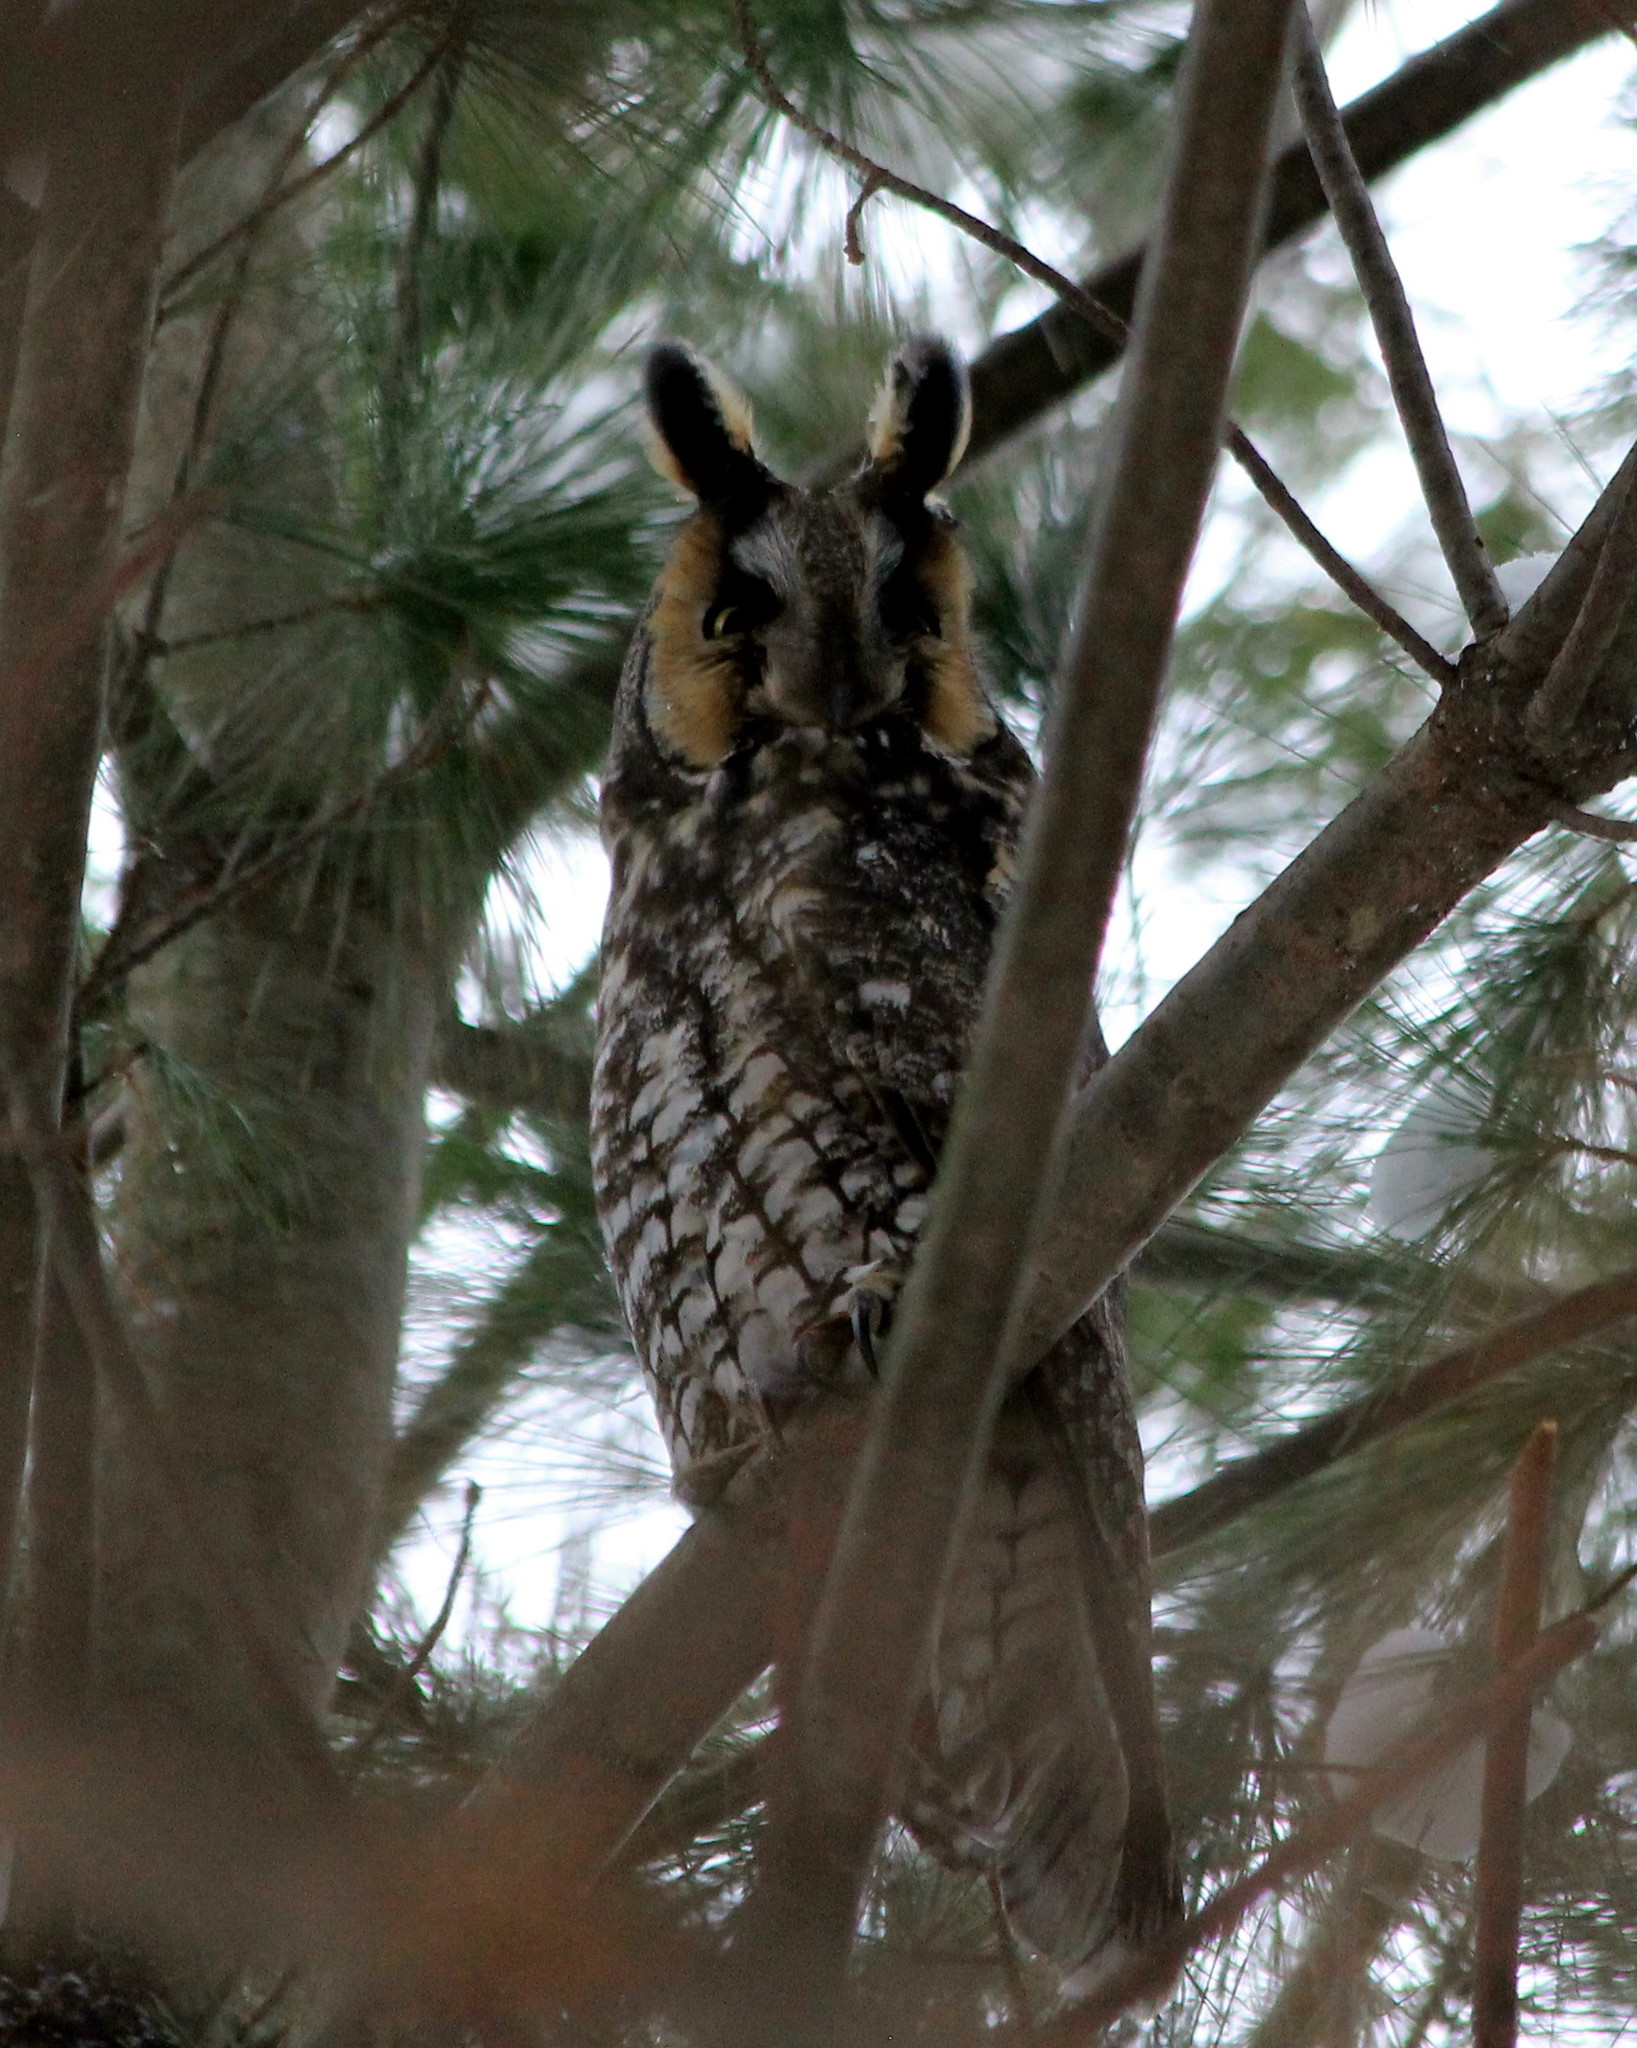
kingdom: Animalia
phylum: Chordata
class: Aves
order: Strigiformes
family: Strigidae
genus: Asio
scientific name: Asio otus
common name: Long-eared owl
